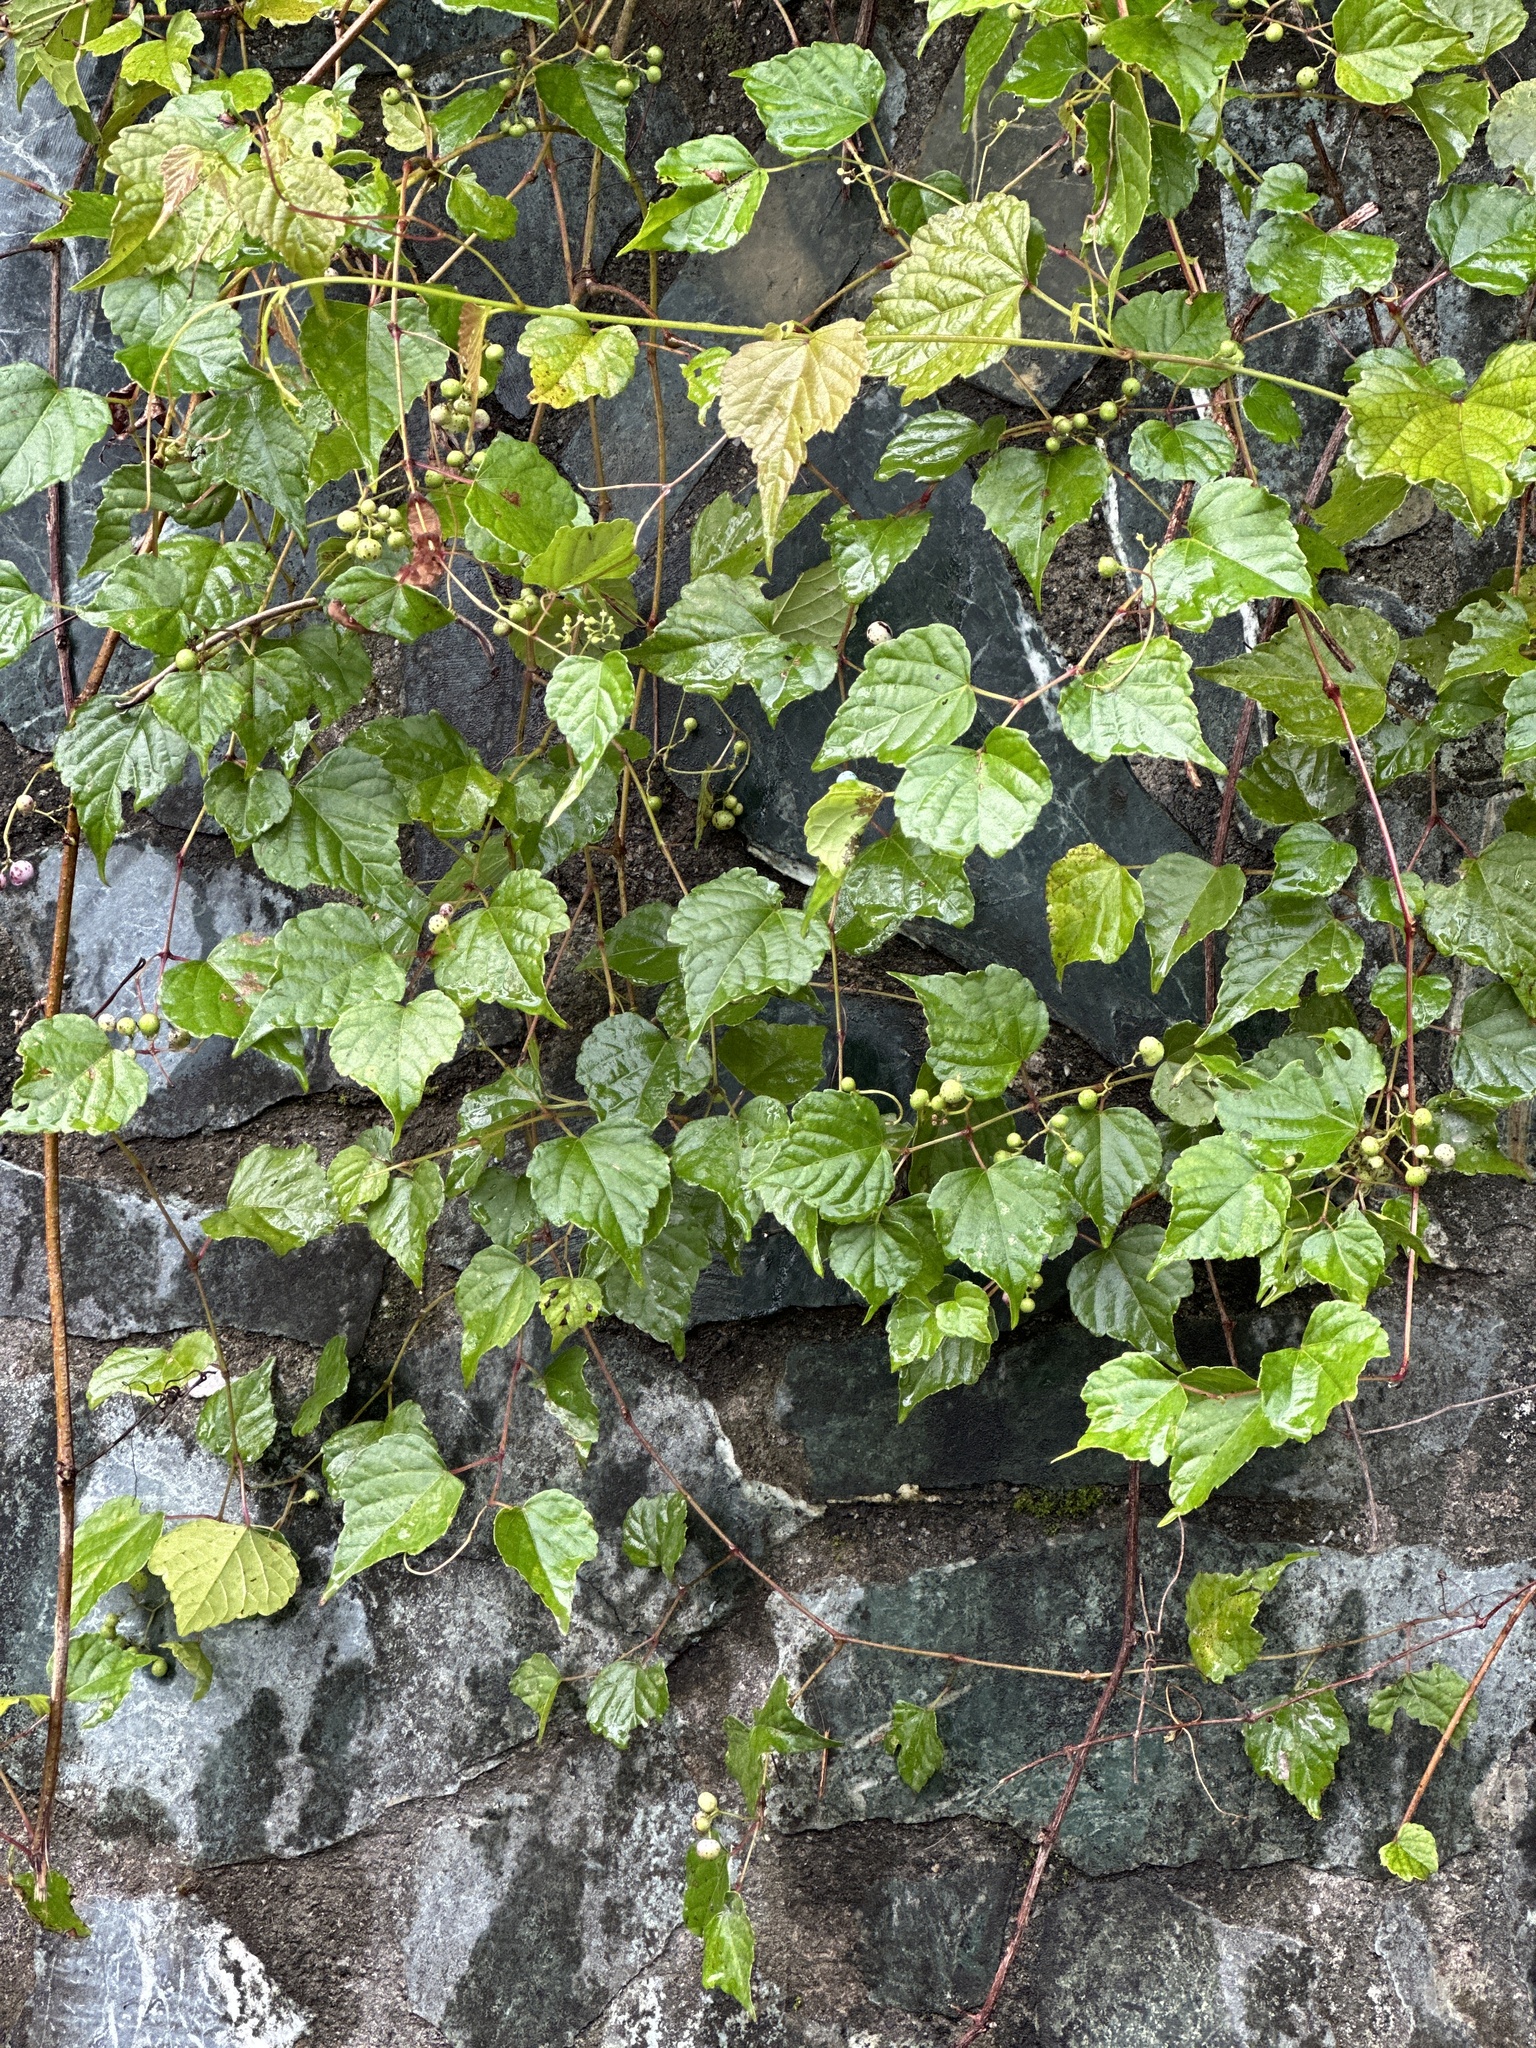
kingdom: Plantae
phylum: Tracheophyta
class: Magnoliopsida
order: Vitales
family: Vitaceae
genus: Ampelopsis
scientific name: Ampelopsis glandulosa
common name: Amur peppervine
